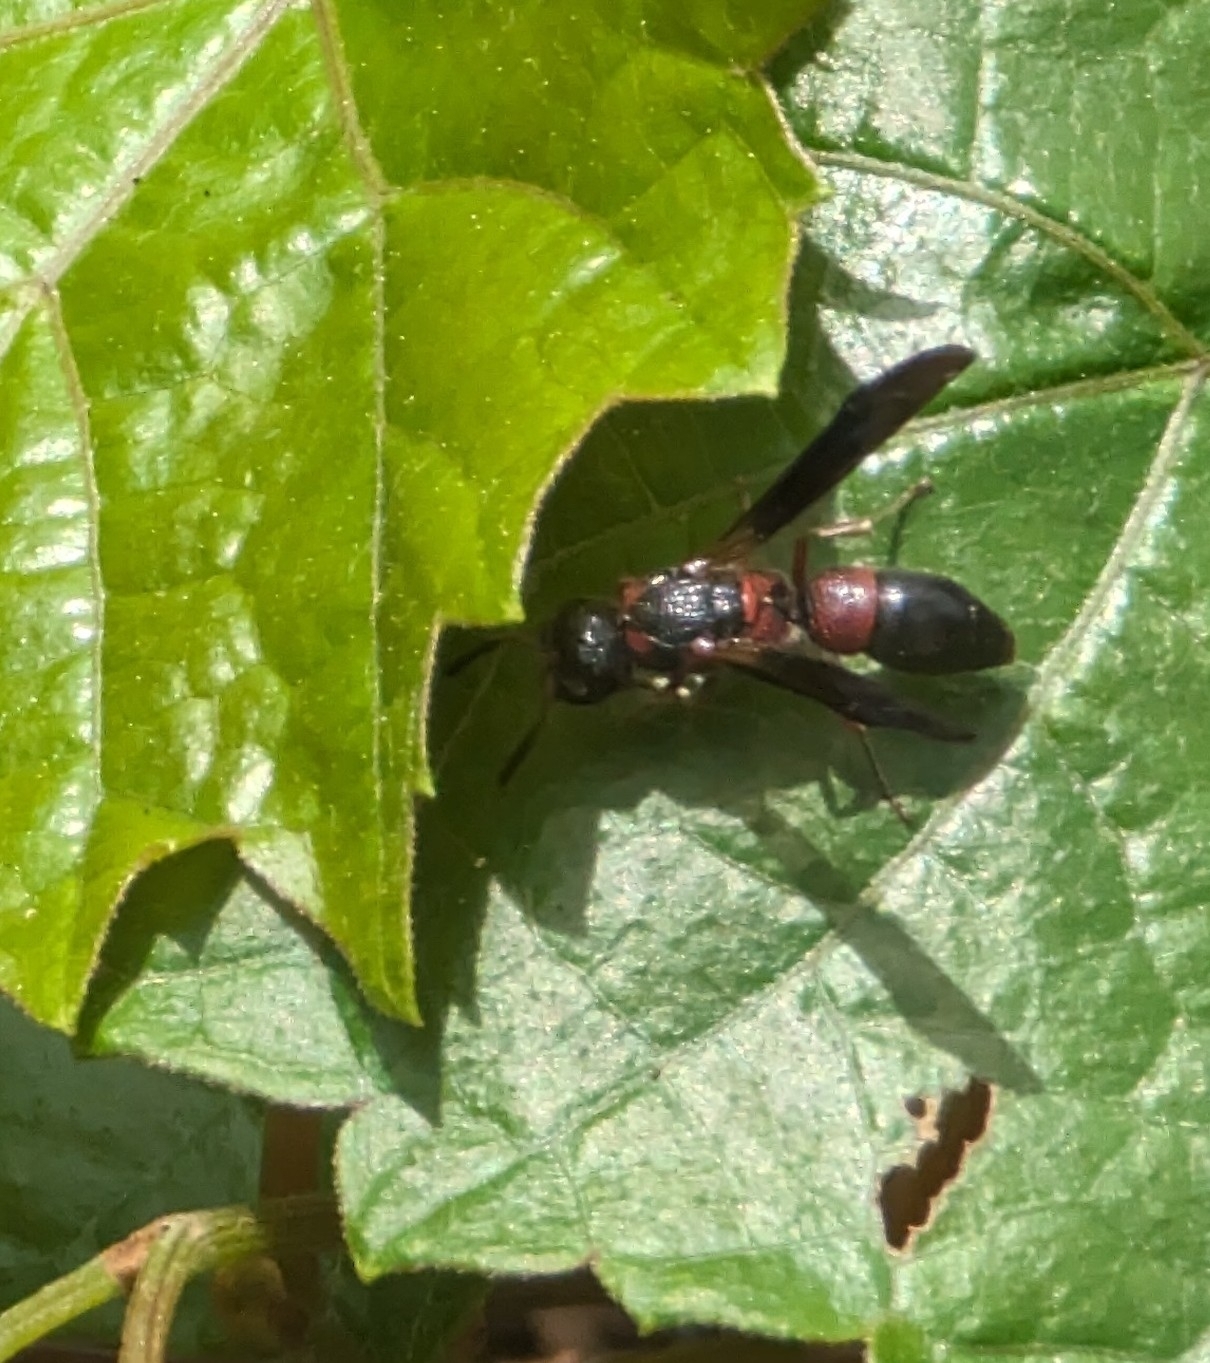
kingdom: Animalia
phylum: Arthropoda
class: Insecta
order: Hymenoptera
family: Eumenidae
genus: Parancistrocerus
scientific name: Parancistrocerus histrio
